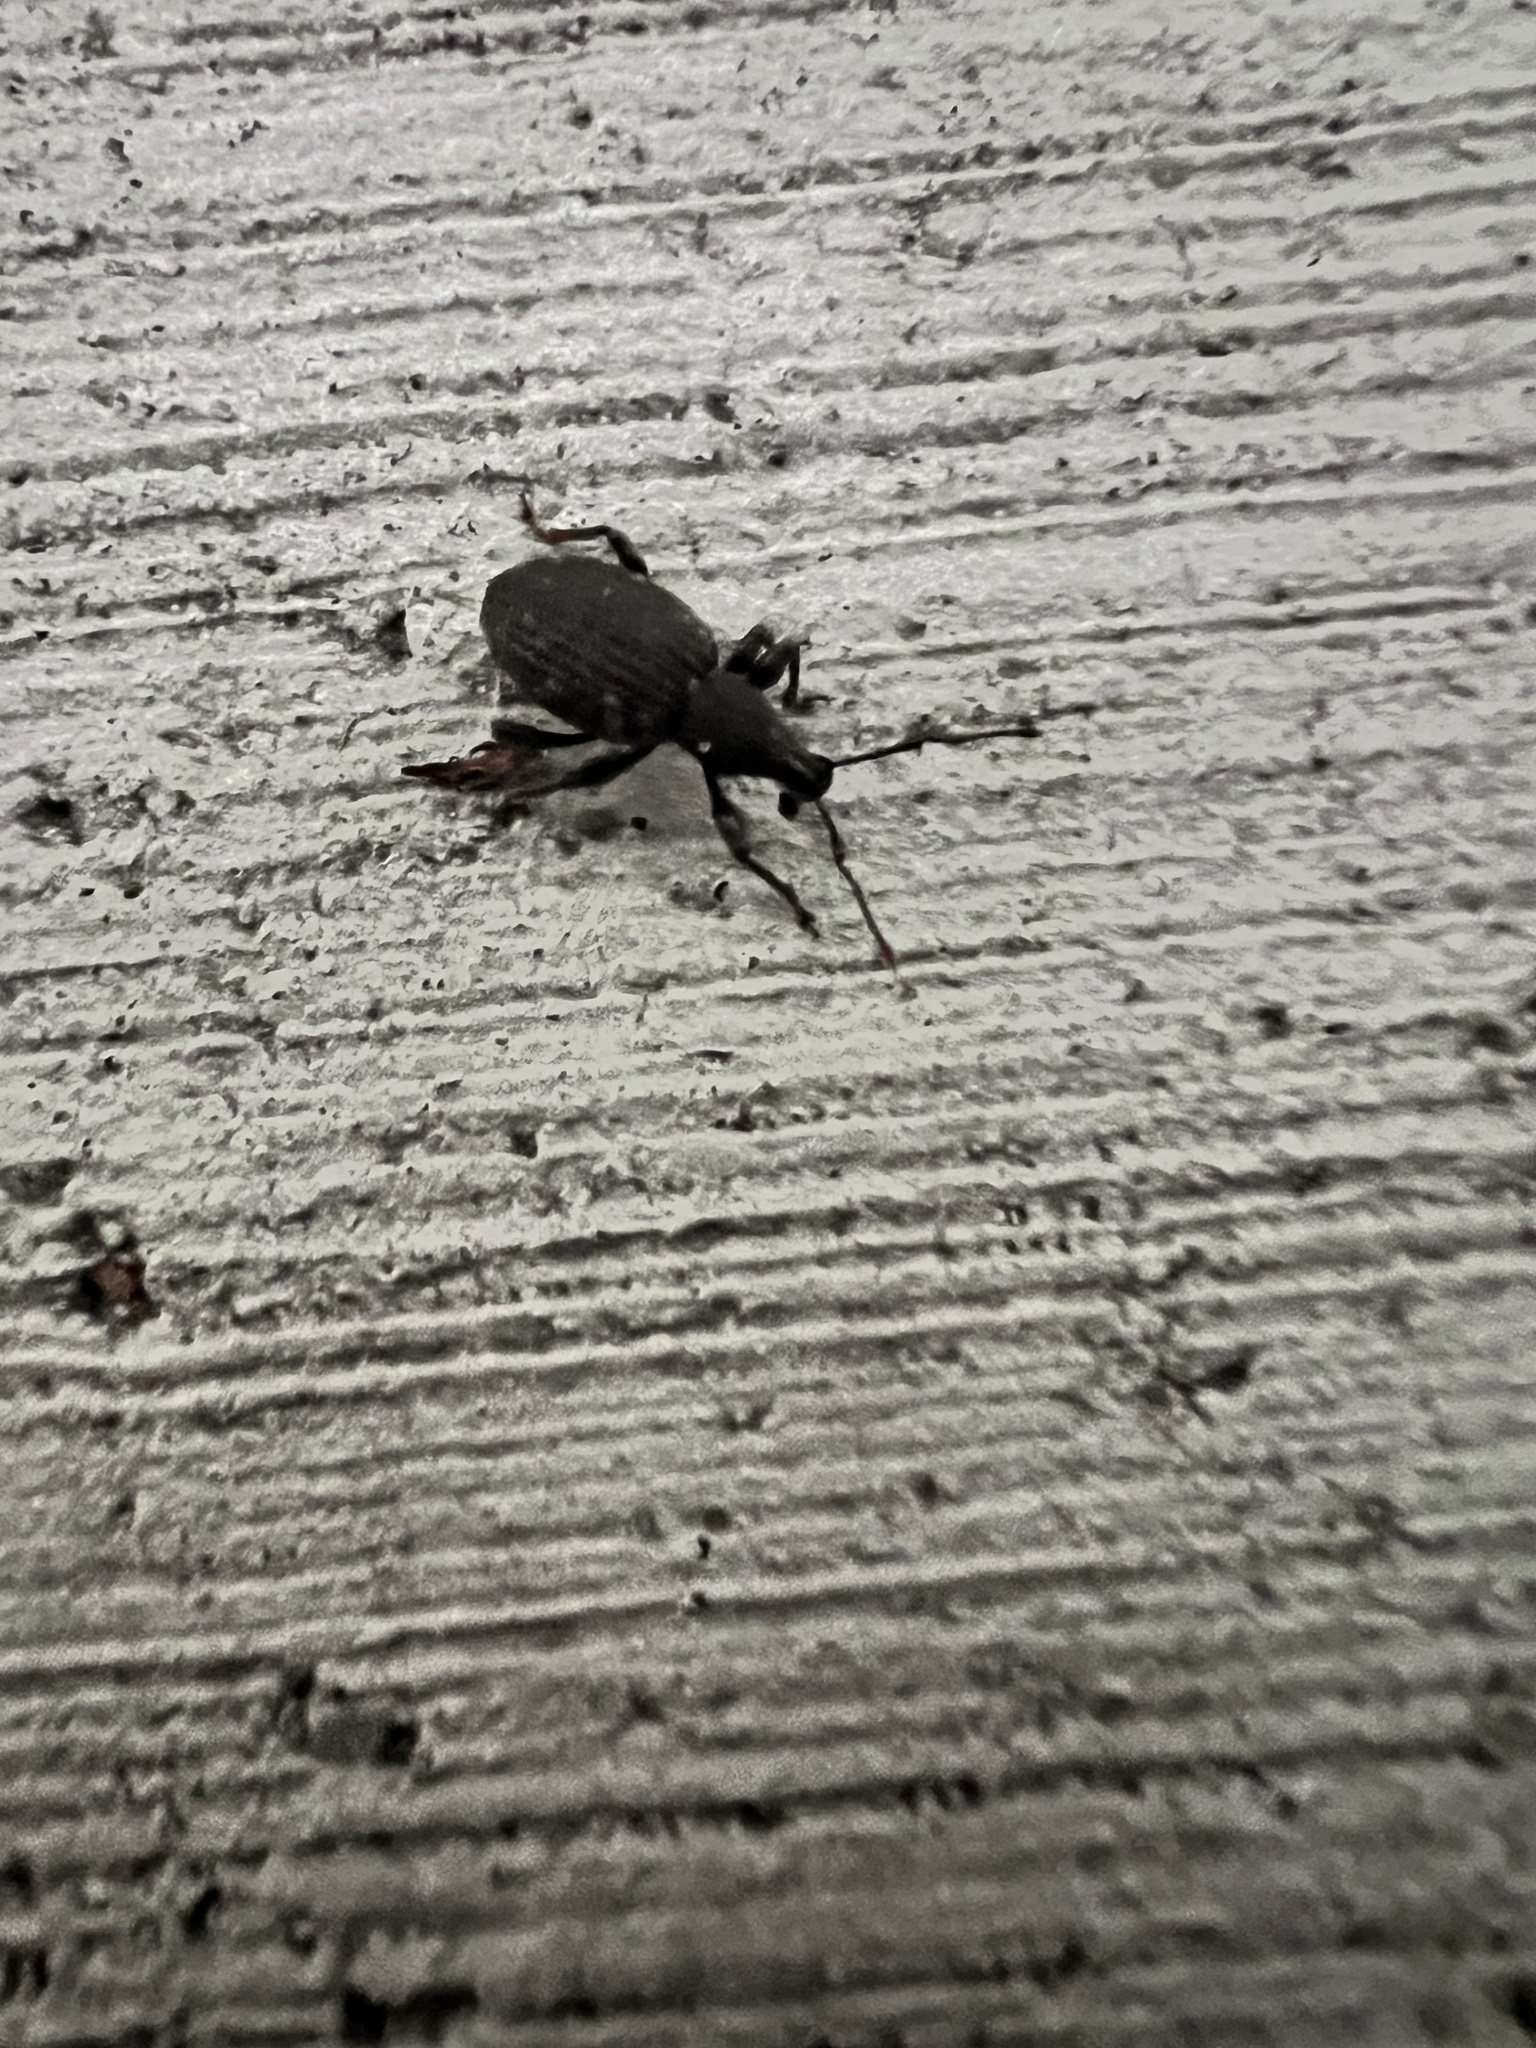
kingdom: Animalia
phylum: Arthropoda
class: Insecta
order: Coleoptera
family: Curculionidae
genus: Otiorhynchus
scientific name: Otiorhynchus sulcatus
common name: Black vine weevil
